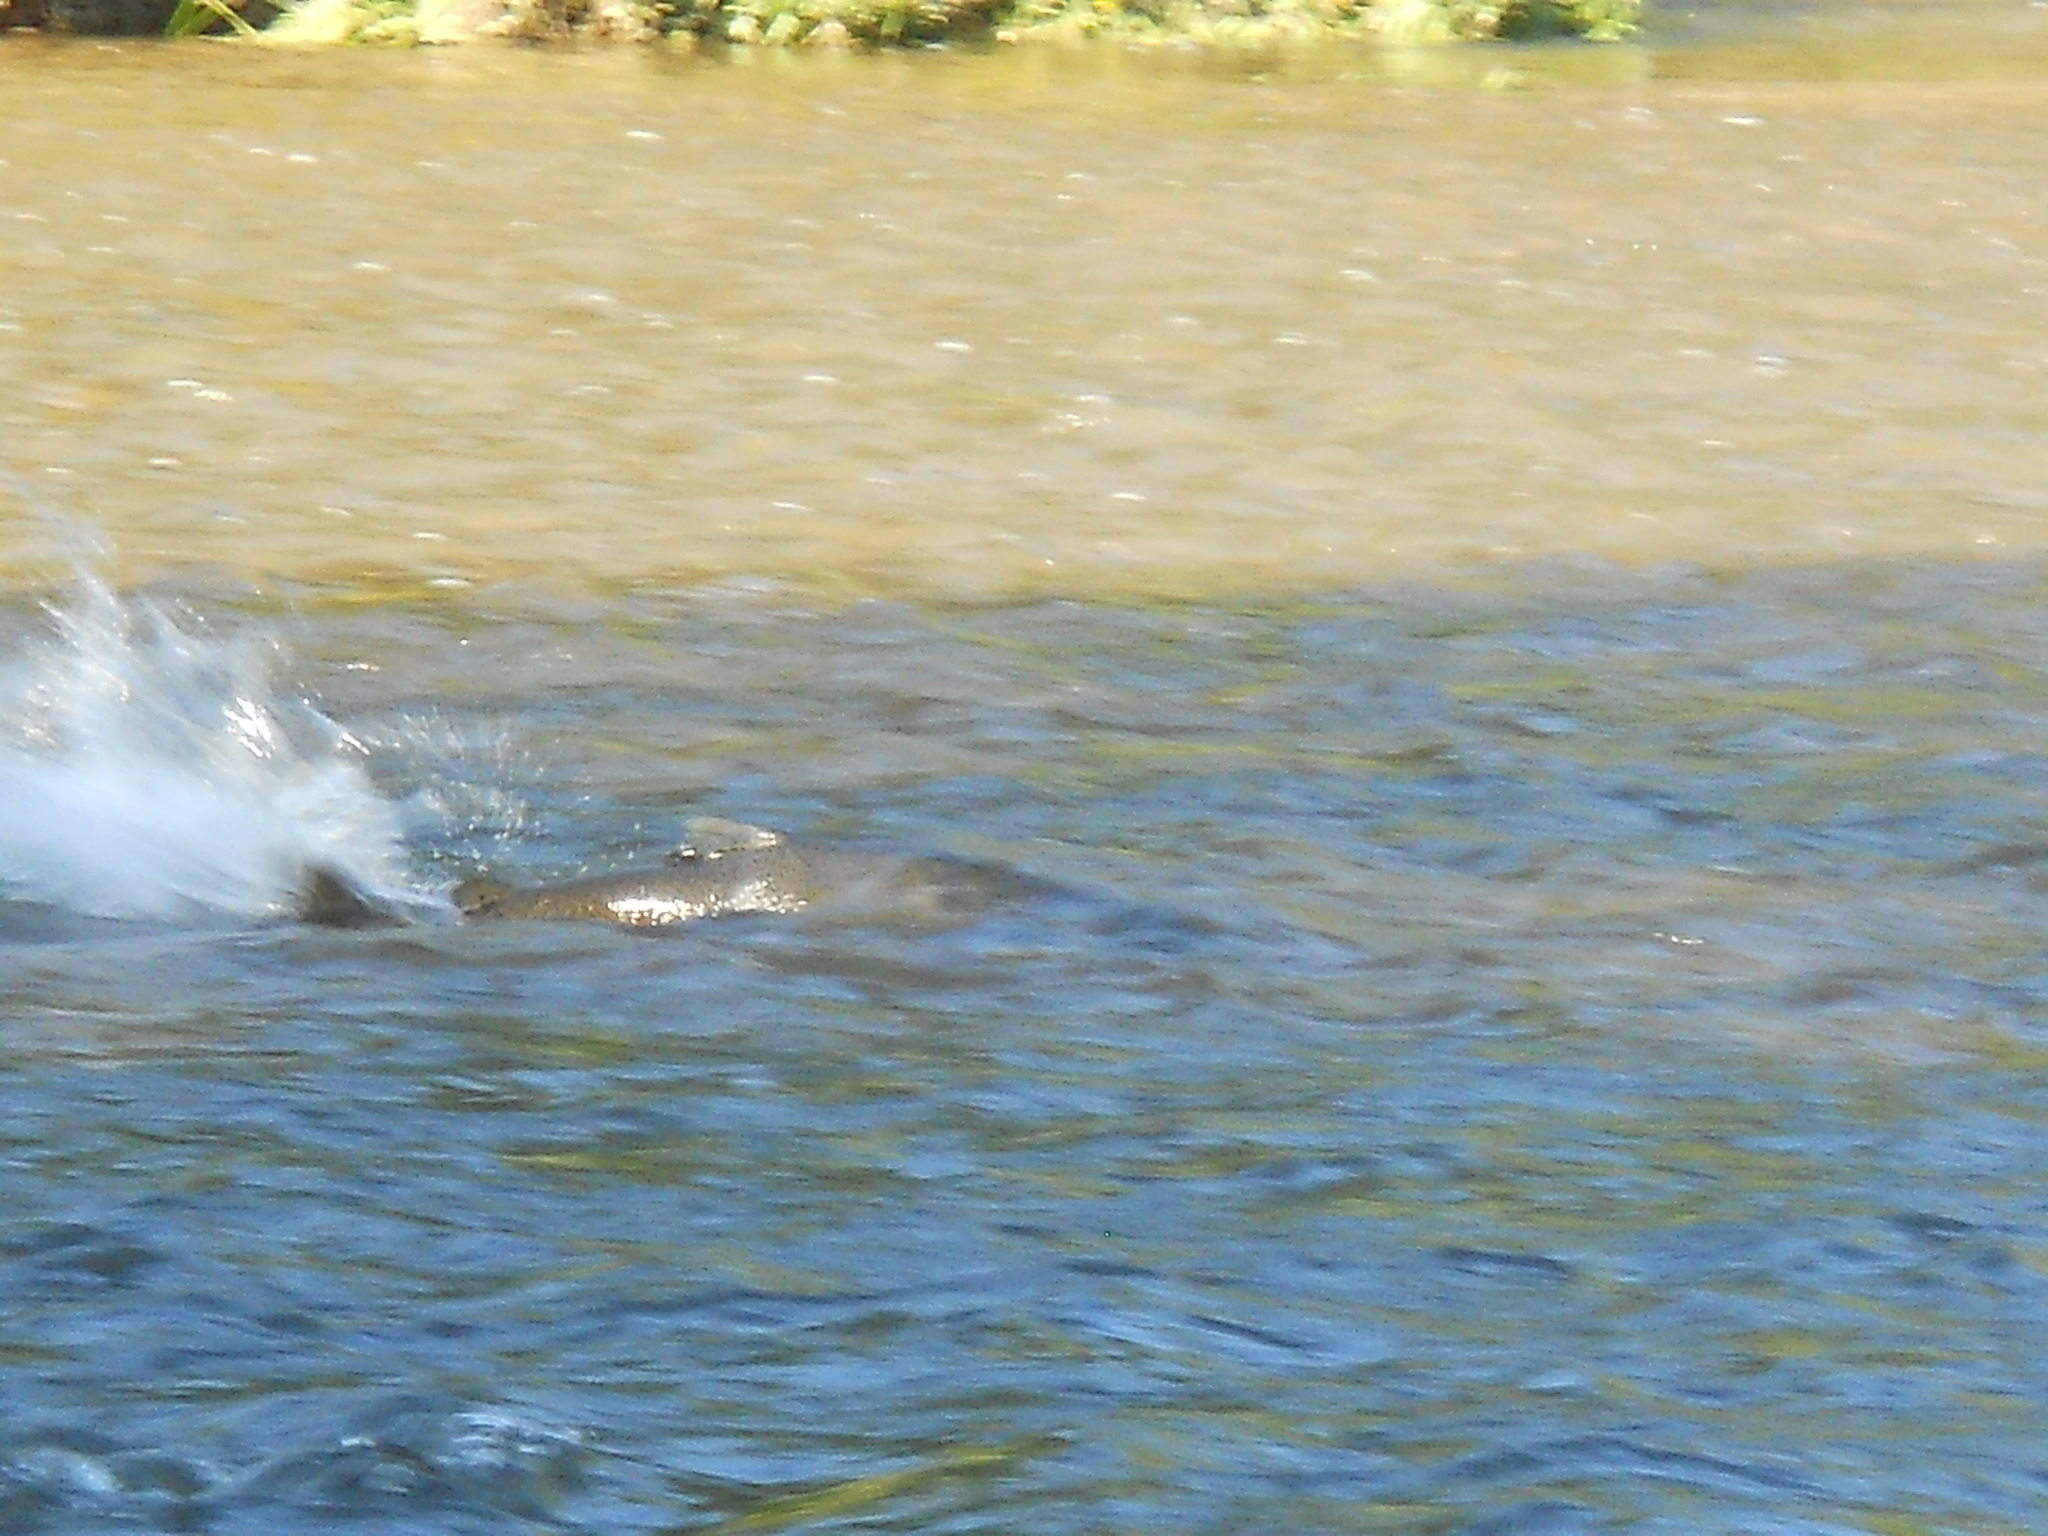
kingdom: Animalia
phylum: Chordata
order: Salmoniformes
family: Salmonidae
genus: Oncorhynchus
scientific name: Oncorhynchus tshawytscha
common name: Chinook salmon
